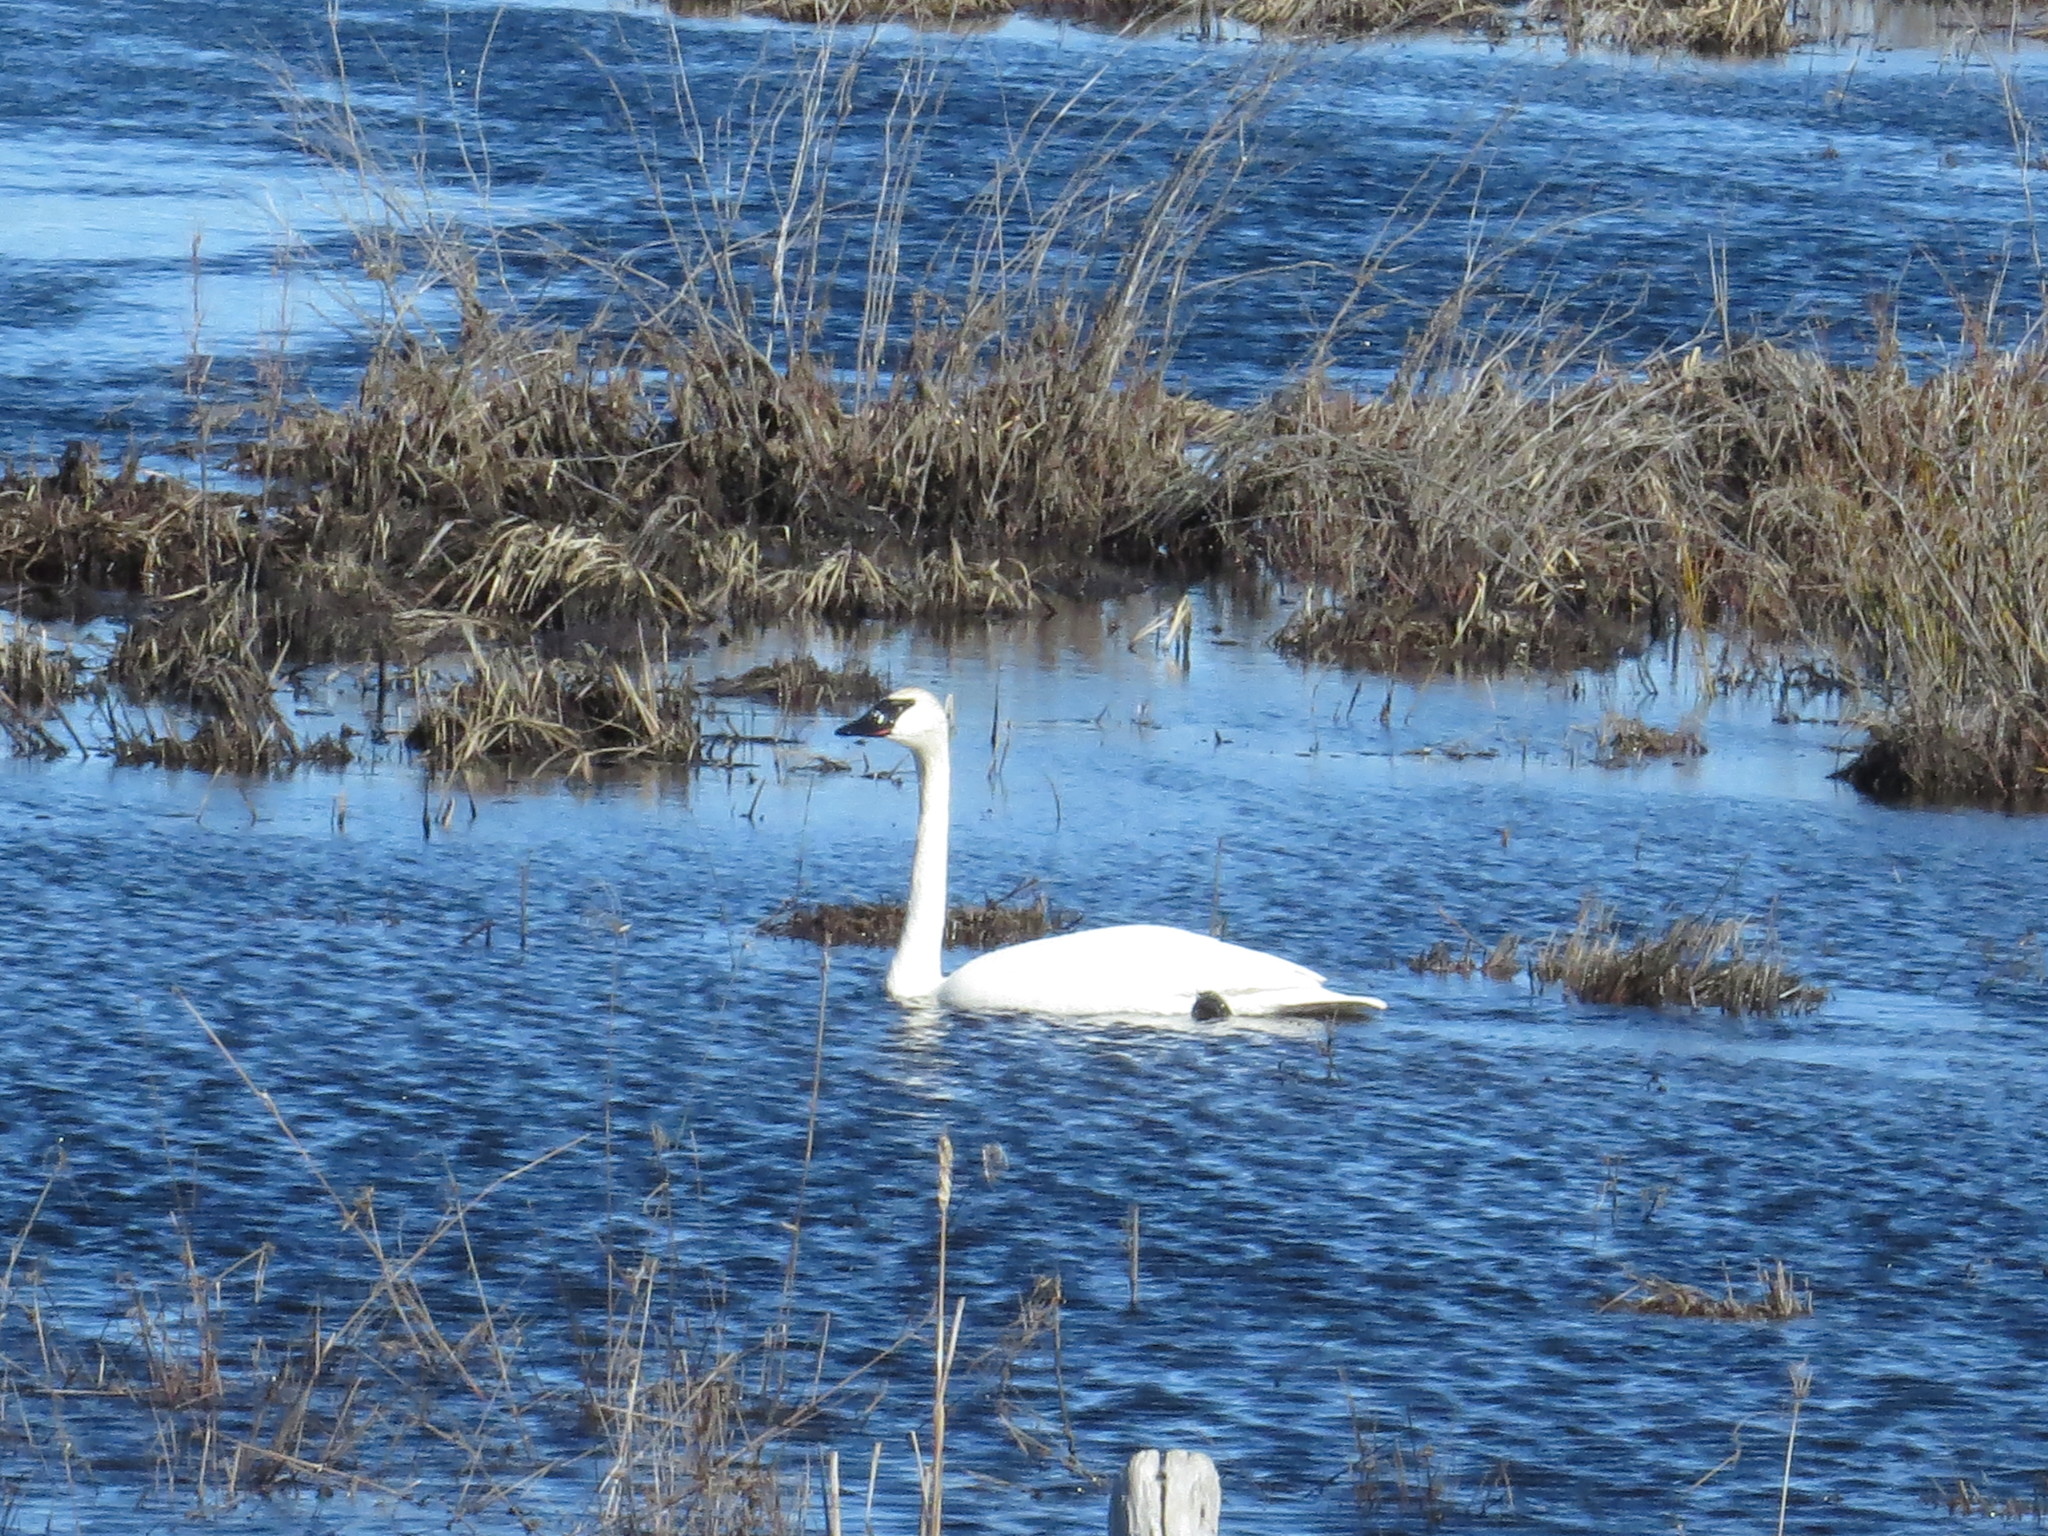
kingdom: Animalia
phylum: Chordata
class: Aves
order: Anseriformes
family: Anatidae
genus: Cygnus
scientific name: Cygnus buccinator
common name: Trumpeter swan
